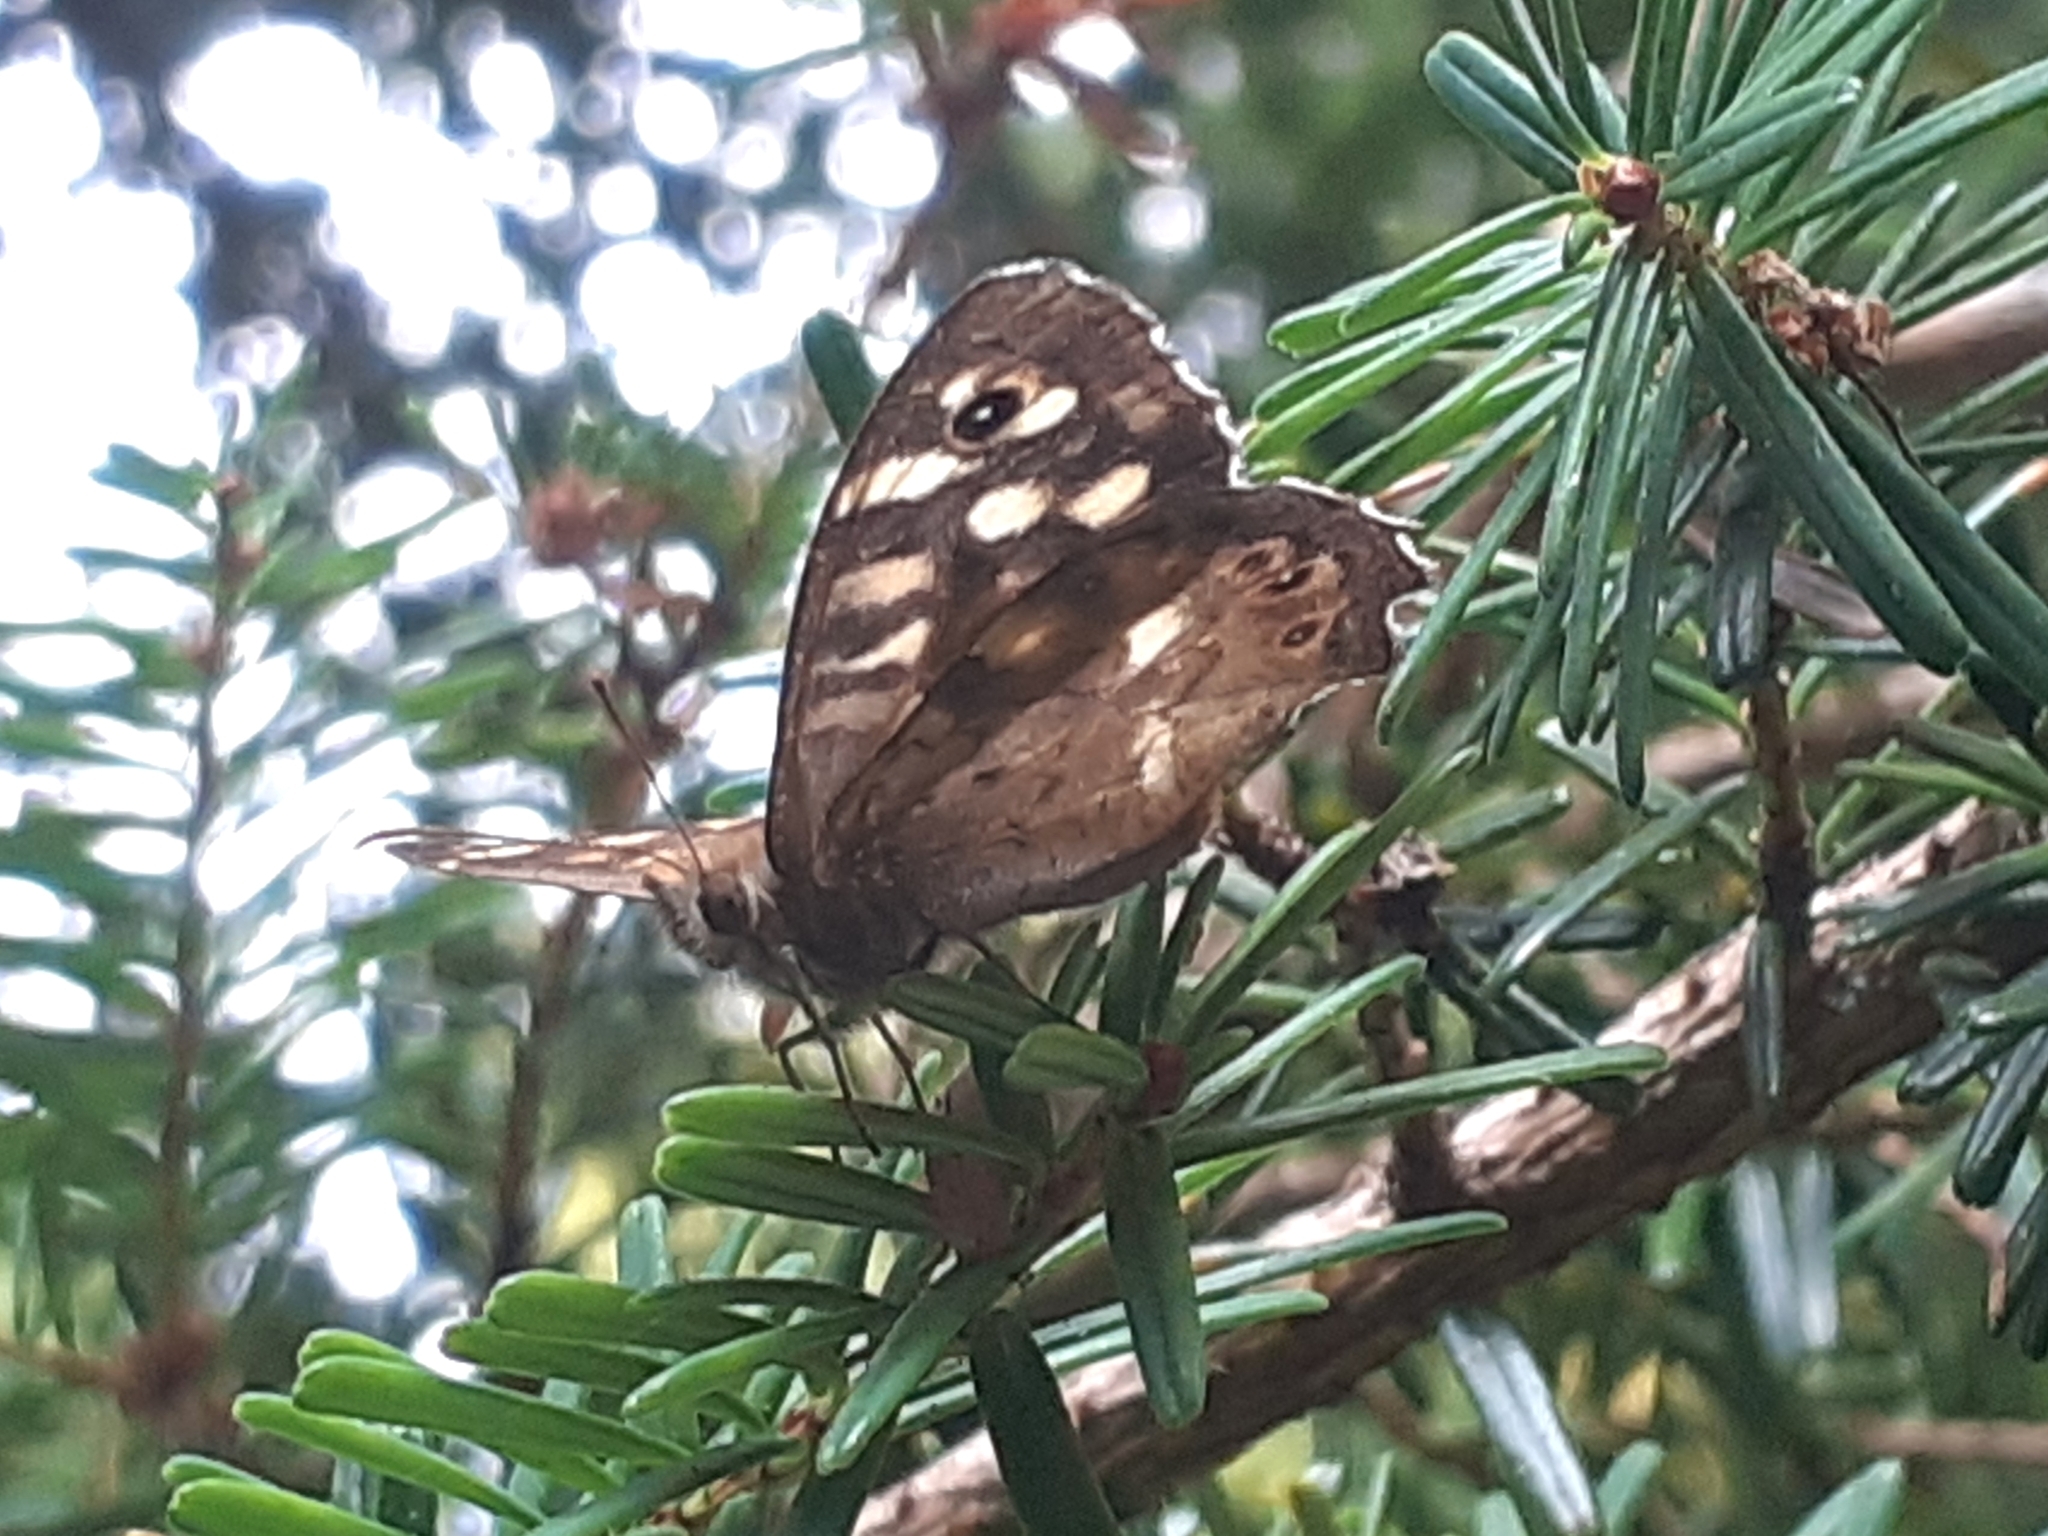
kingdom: Animalia
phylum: Arthropoda
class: Insecta
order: Lepidoptera
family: Nymphalidae
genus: Pararge
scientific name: Pararge aegeria
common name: Speckled wood
